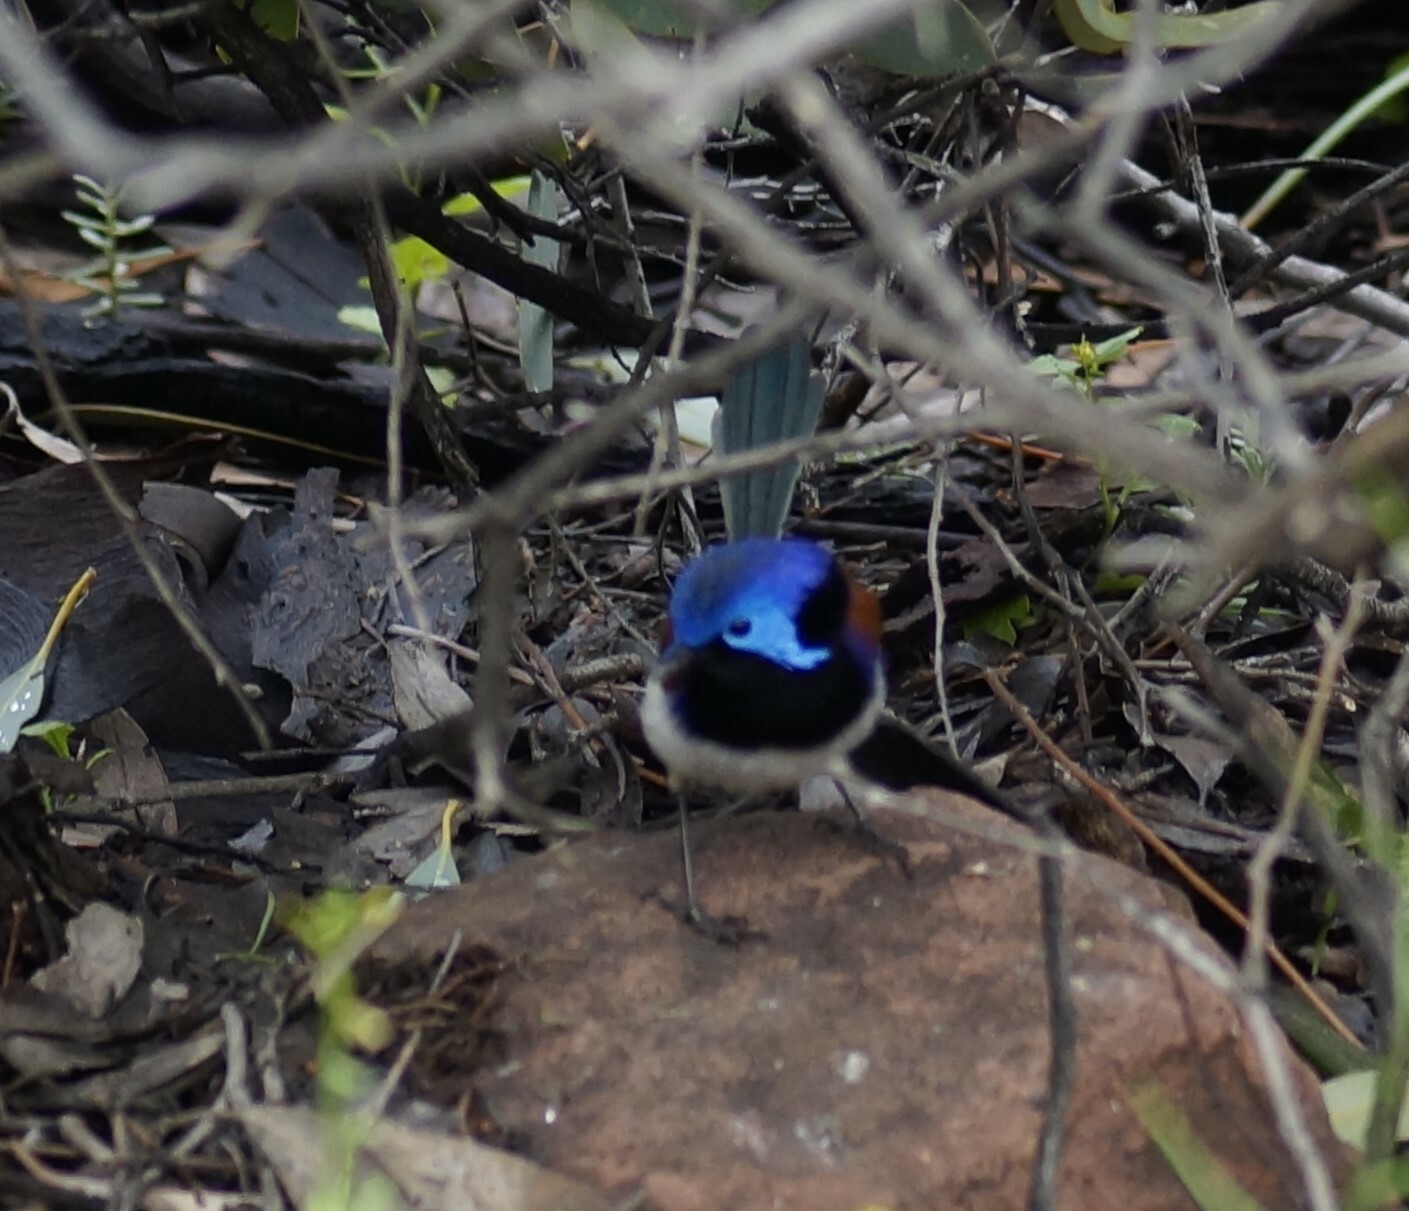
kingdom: Animalia
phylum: Chordata
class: Aves
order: Passeriformes
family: Maluridae
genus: Malurus
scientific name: Malurus assimilis
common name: Purple-backed fairywren
